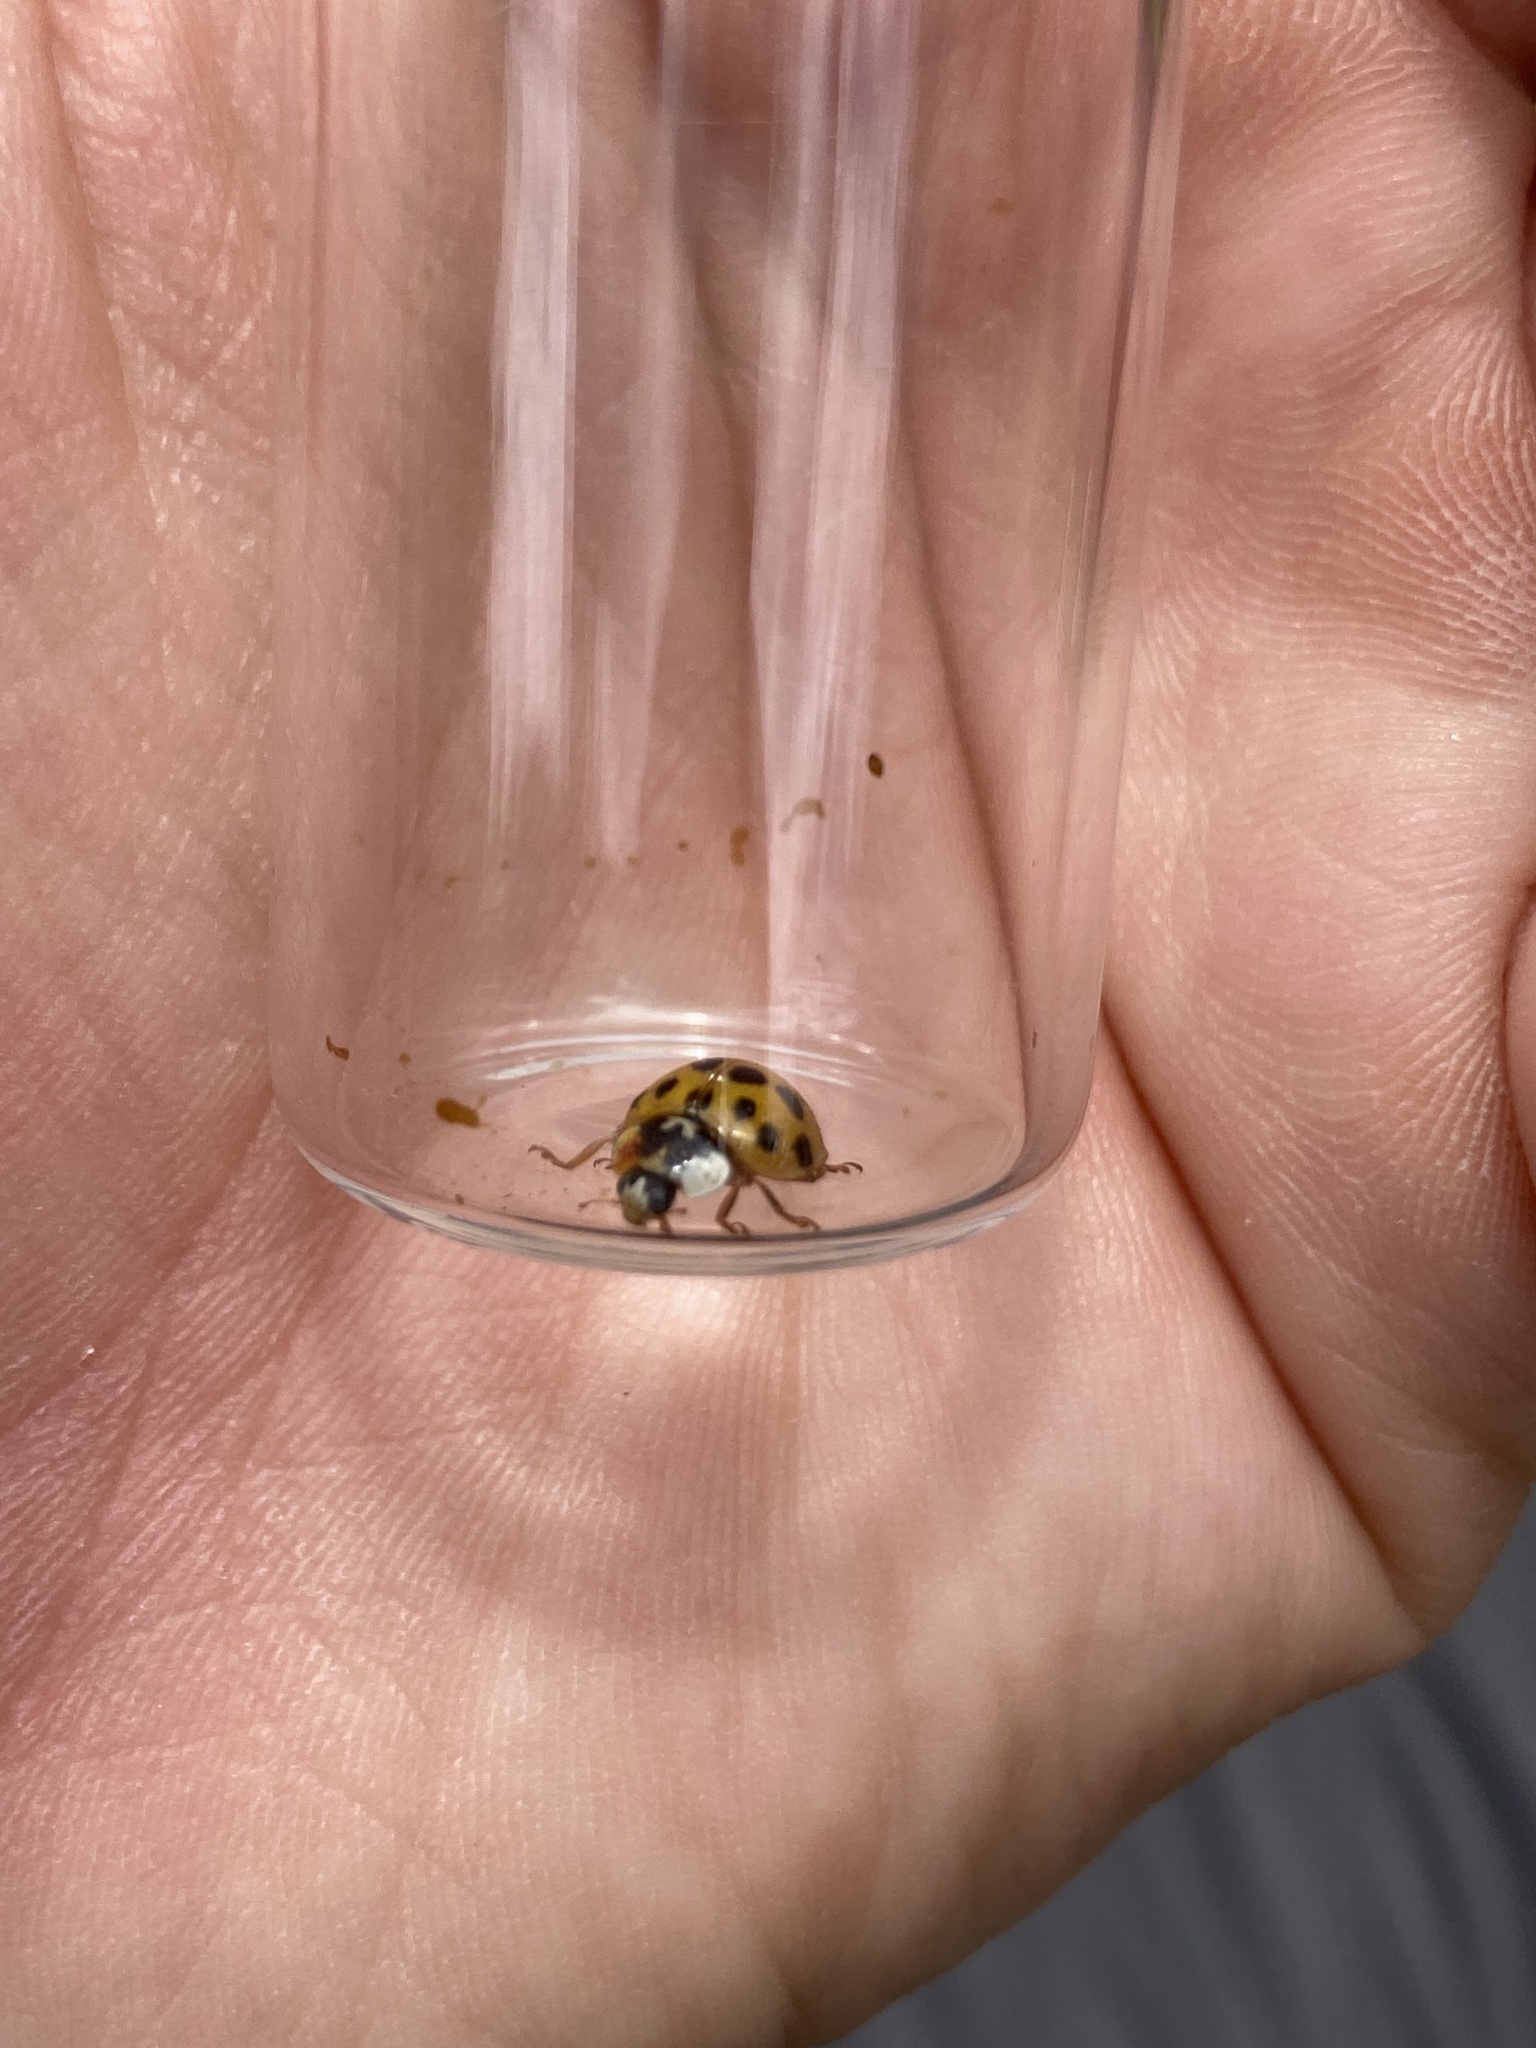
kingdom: Animalia
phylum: Arthropoda
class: Insecta
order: Coleoptera
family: Coccinellidae
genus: Harmonia
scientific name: Harmonia axyridis
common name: Harlequin ladybird
